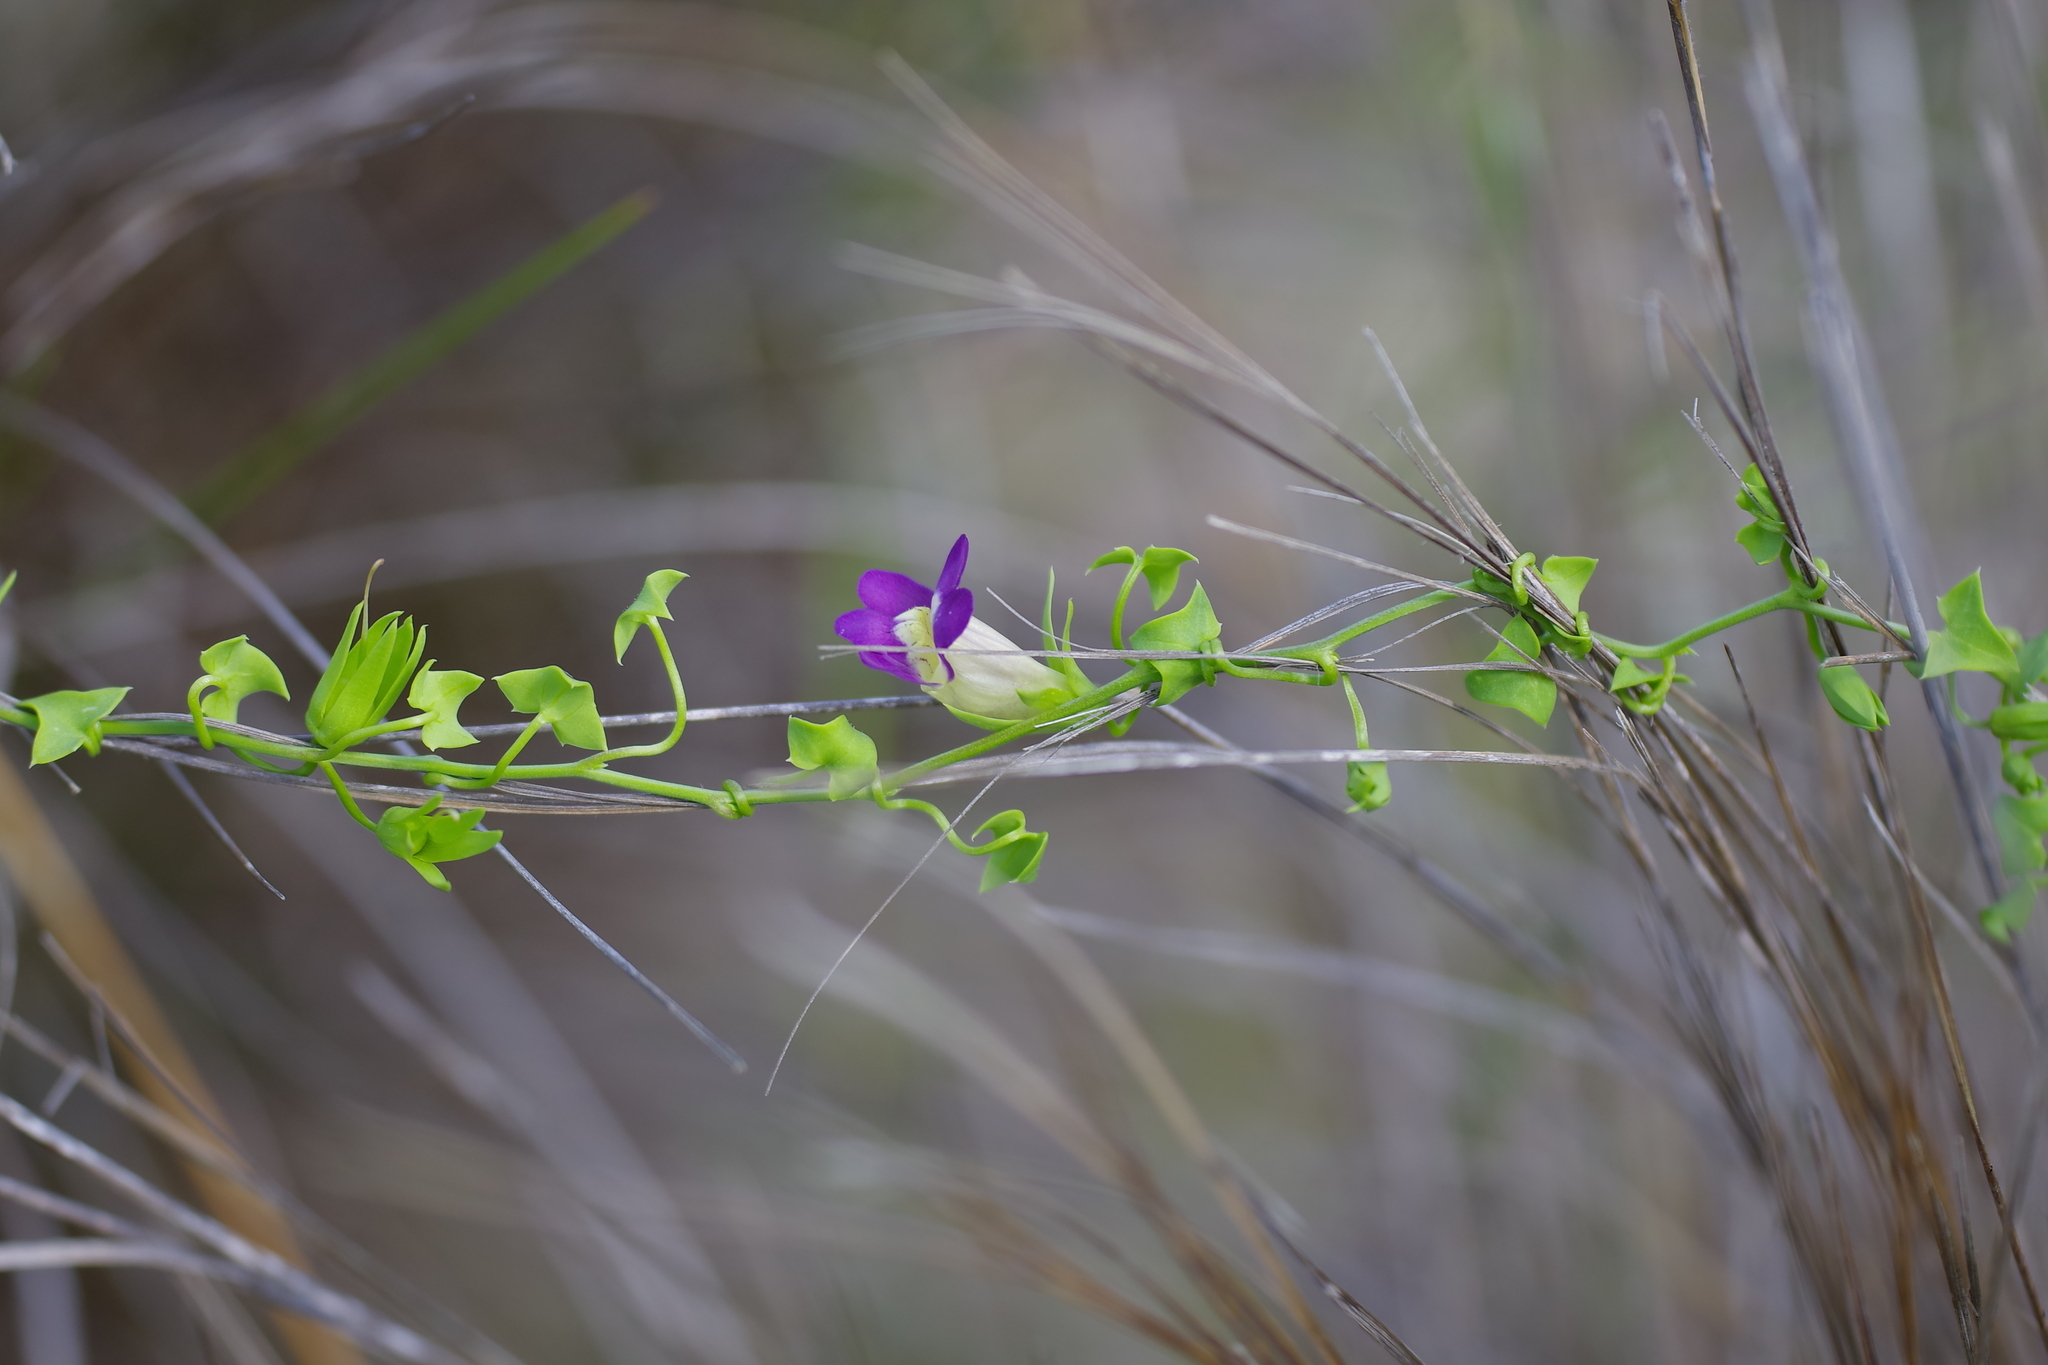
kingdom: Plantae
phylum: Tracheophyta
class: Magnoliopsida
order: Lamiales
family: Plantaginaceae
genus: Maurandella
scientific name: Maurandella antirrhiniflora
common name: Violet twining-snapdragon
